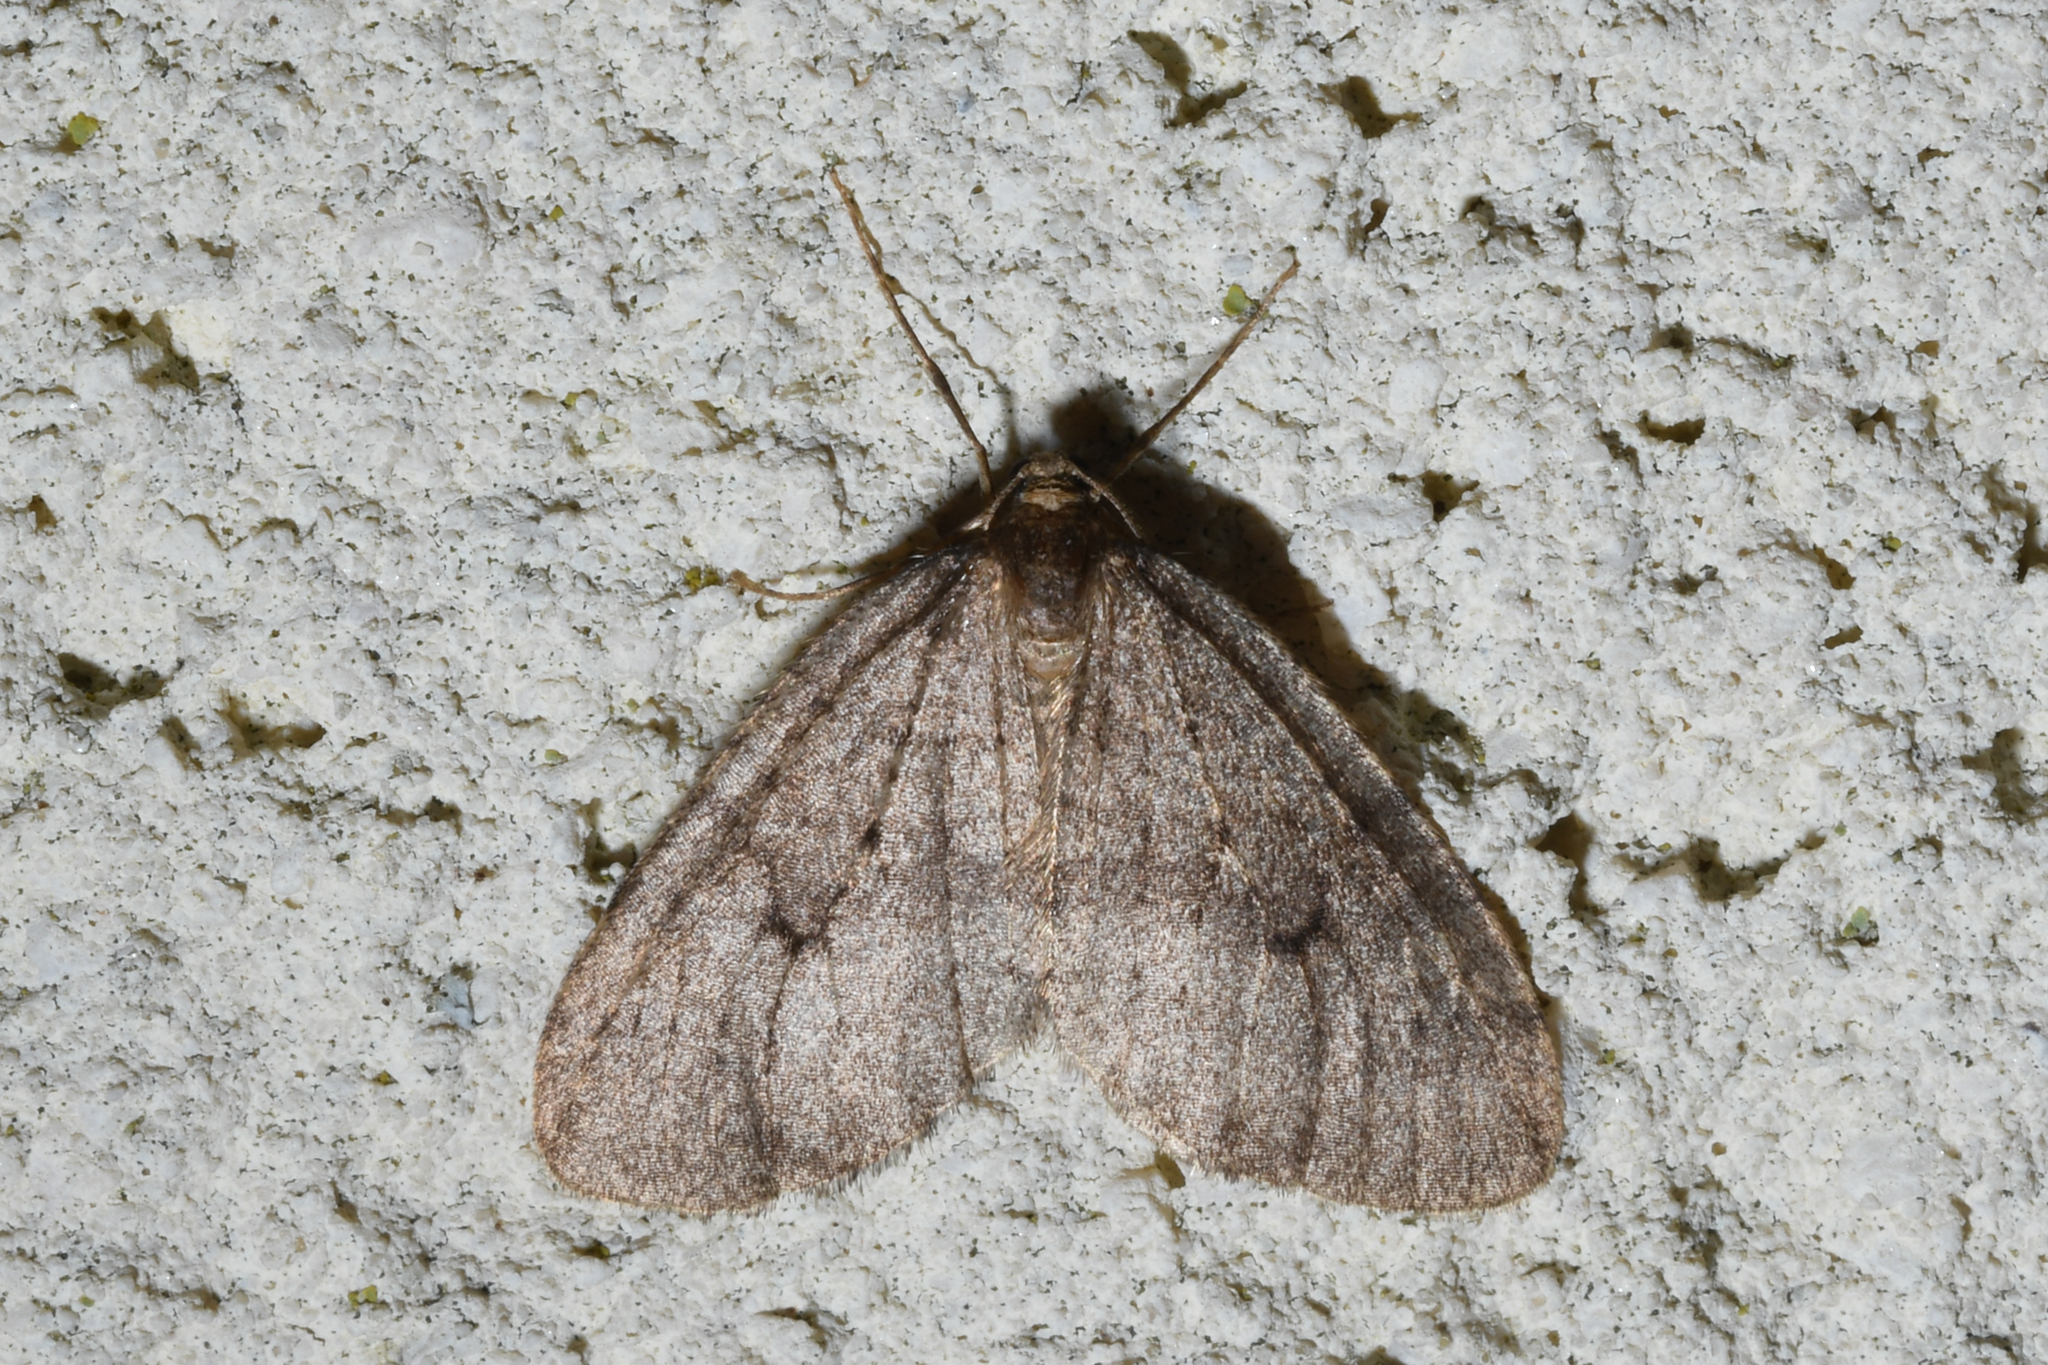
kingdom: Animalia
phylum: Arthropoda
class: Insecta
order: Lepidoptera
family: Geometridae
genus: Operophtera
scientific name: Operophtera brumata
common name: Winter moth
